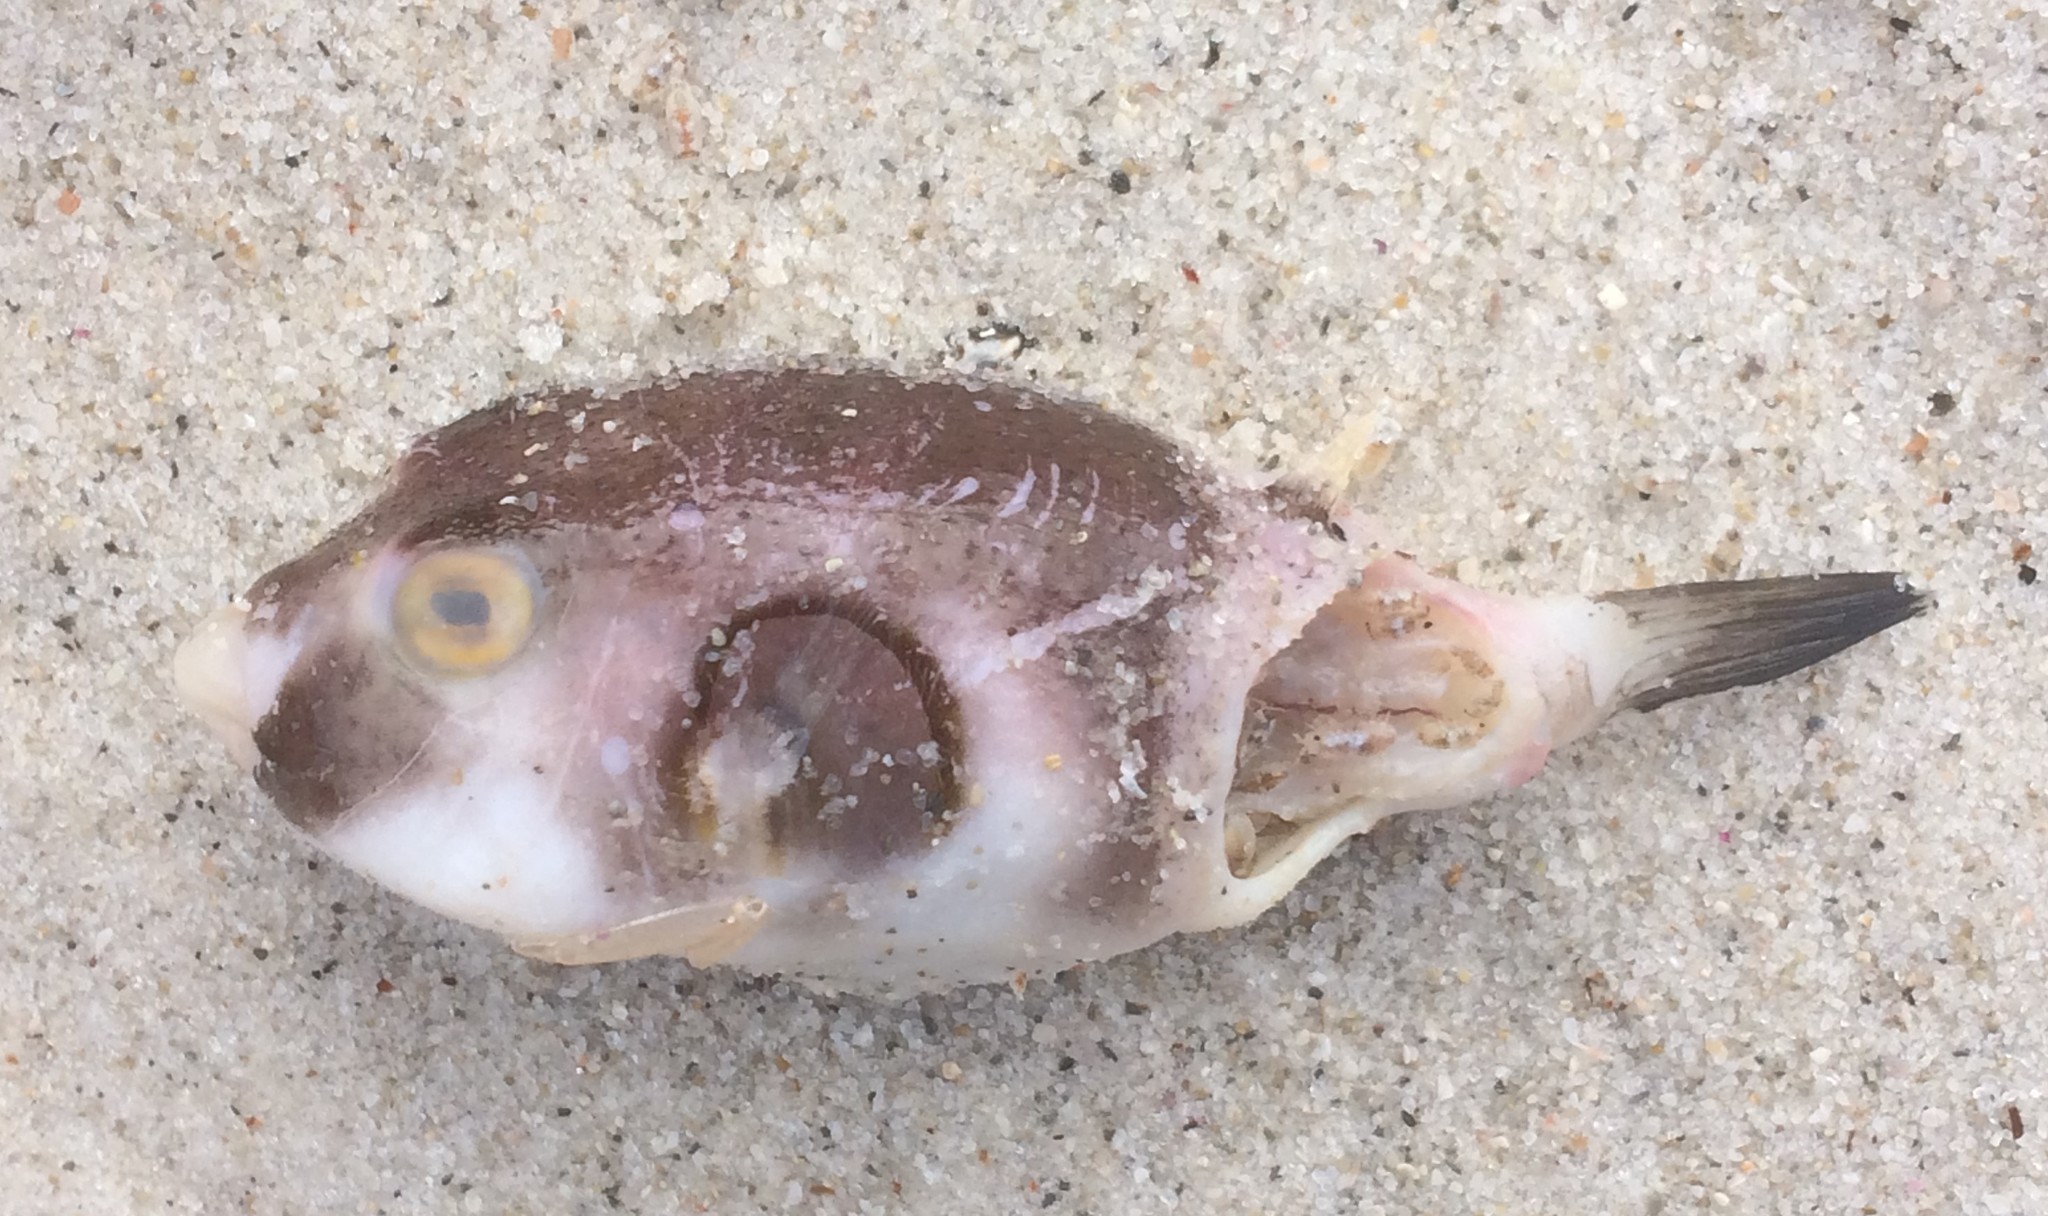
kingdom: Animalia
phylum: Chordata
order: Tetraodontiformes
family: Tetraodontidae
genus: Omegophora
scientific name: Omegophora armilla
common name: Ringed pufferfish
